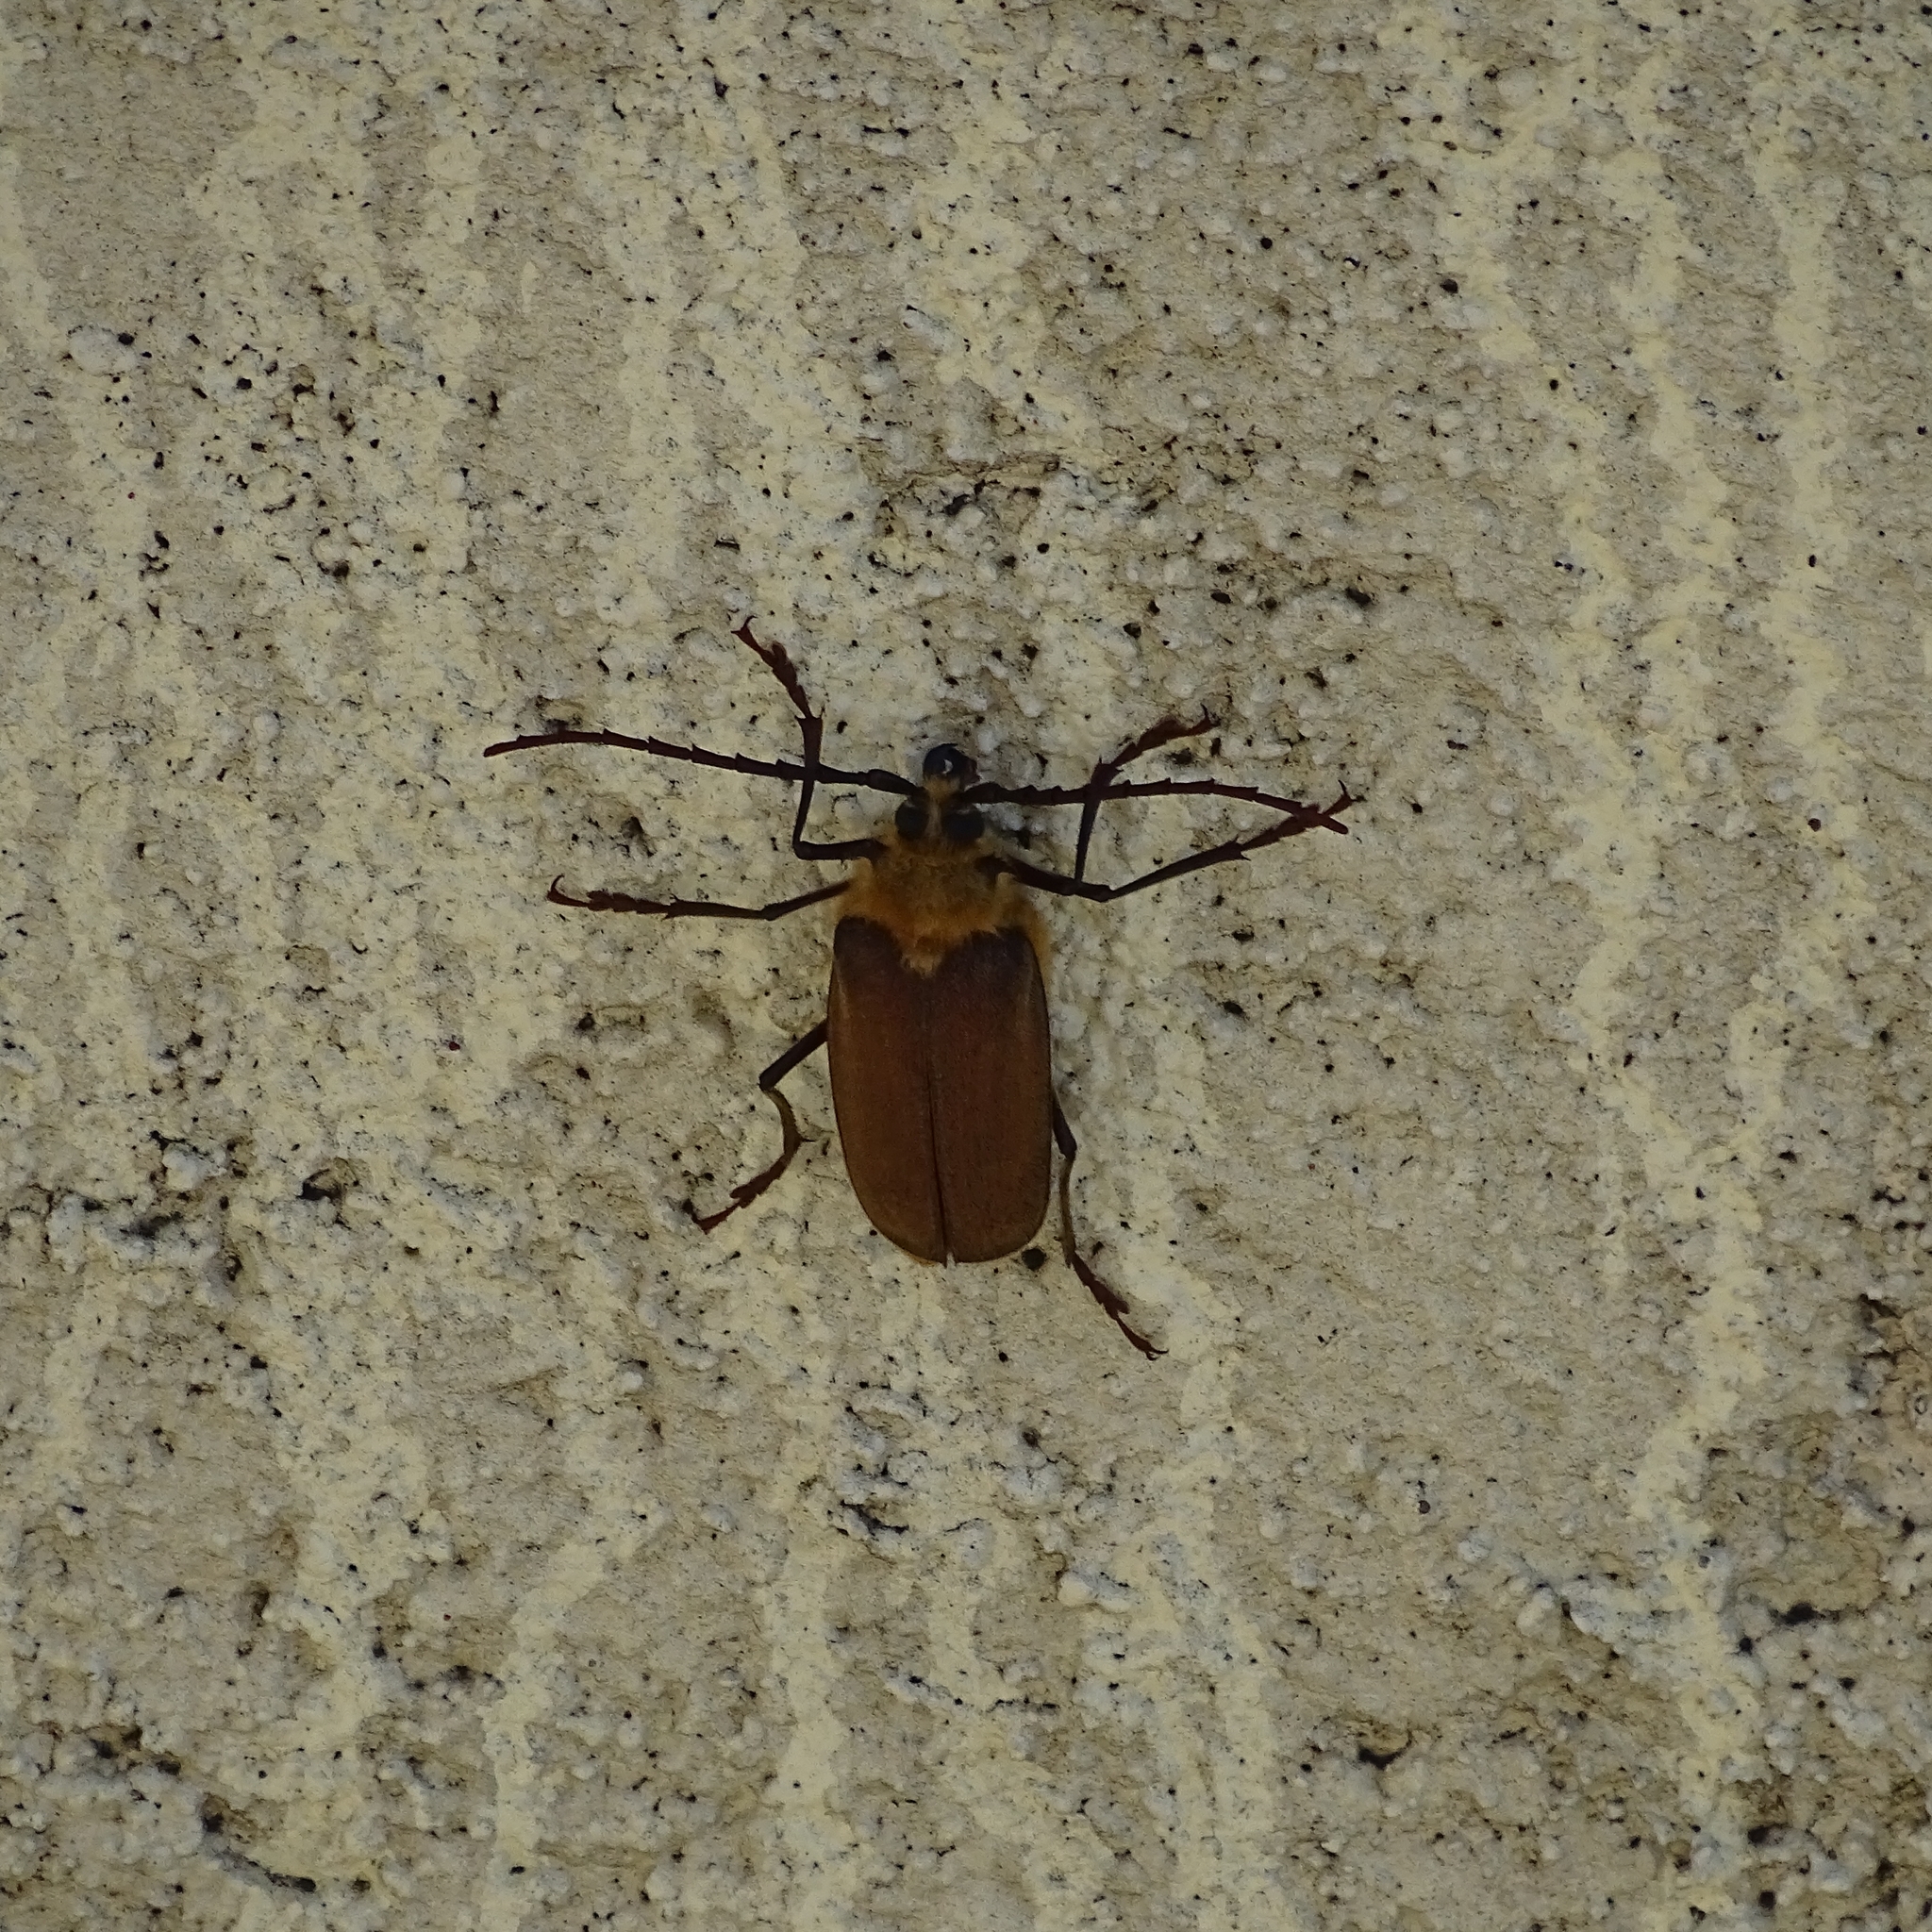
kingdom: Animalia
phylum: Arthropoda
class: Insecta
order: Coleoptera
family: Cerambycidae
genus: Acanthinodera
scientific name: Acanthinodera cumingii
